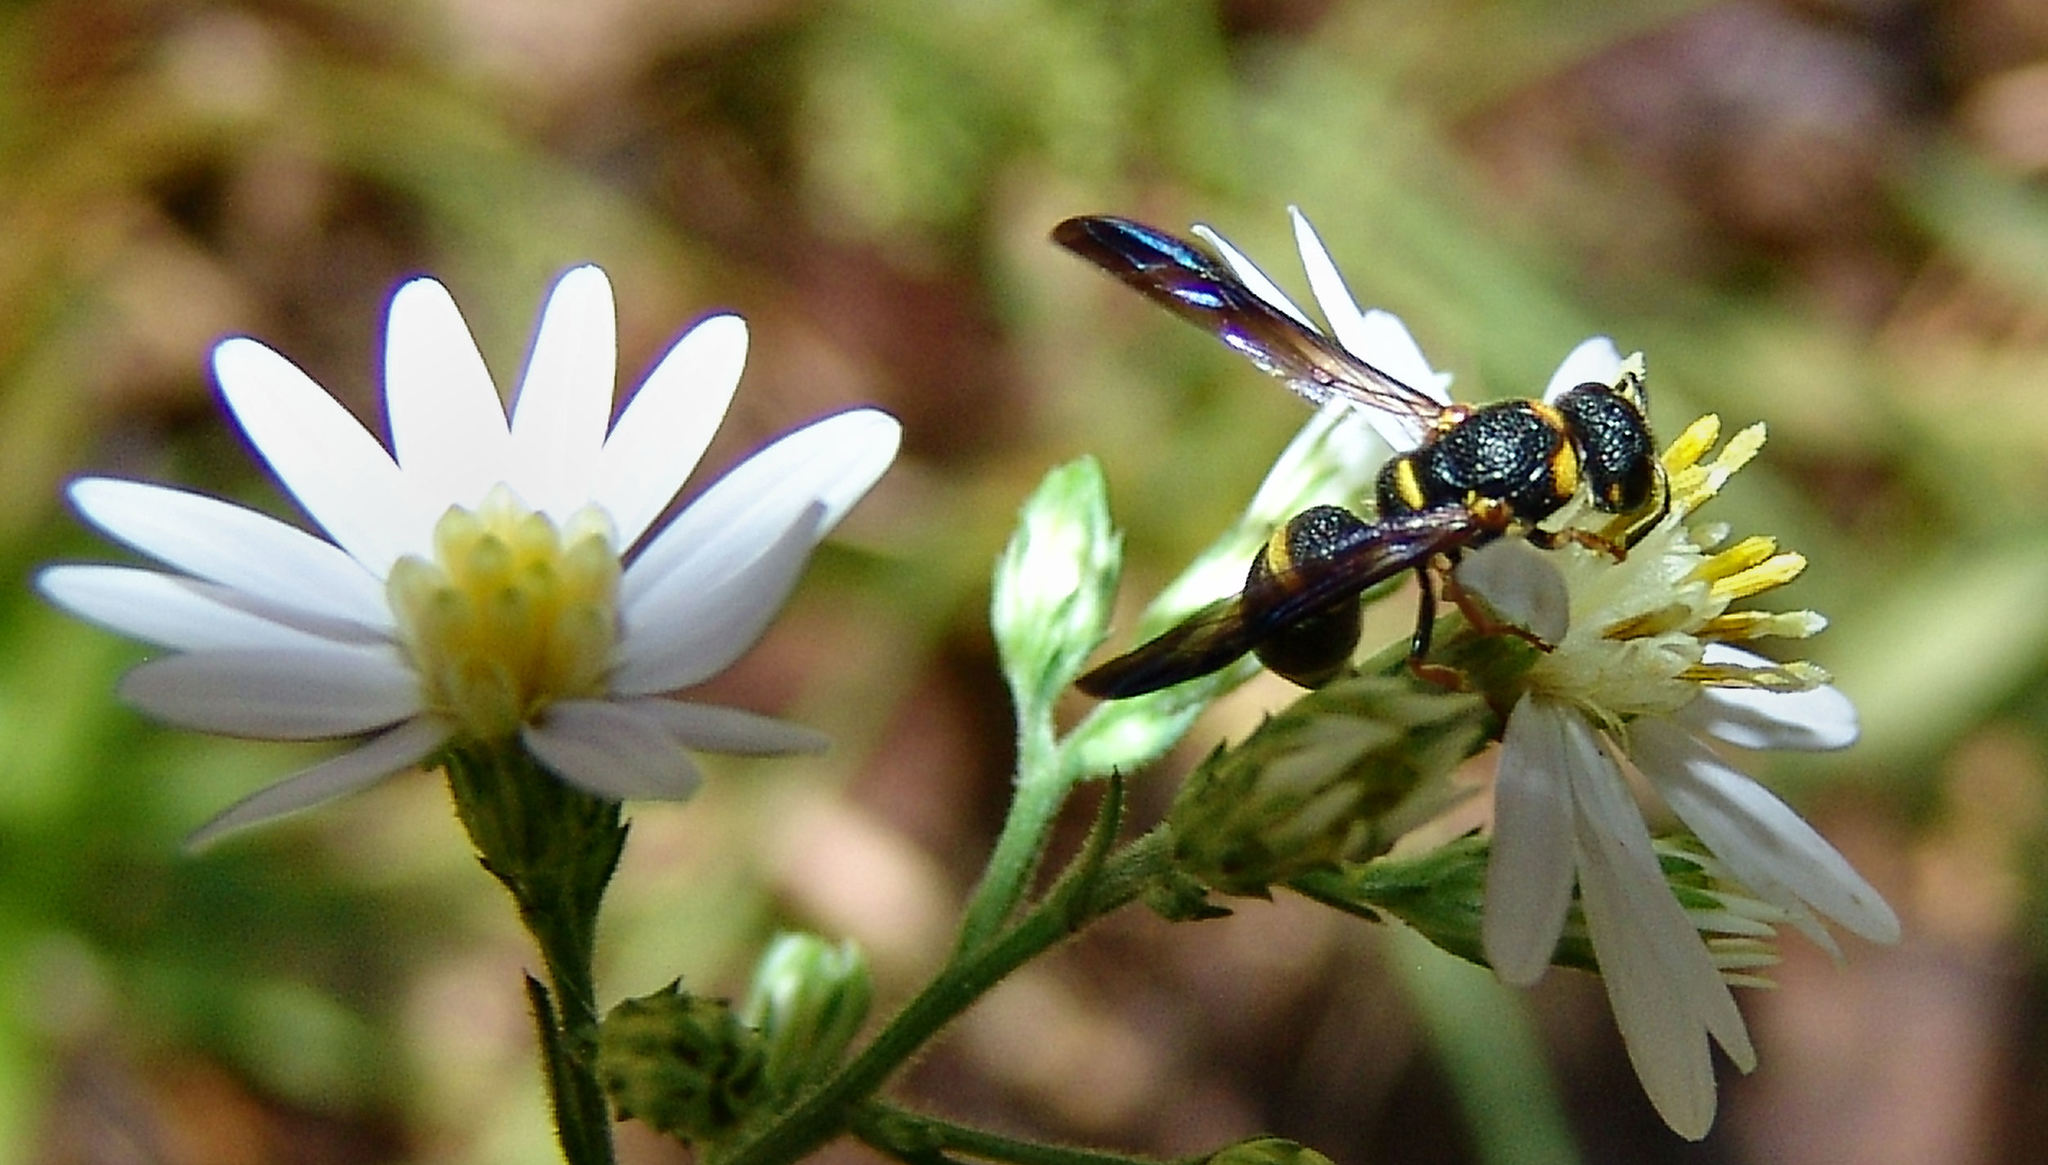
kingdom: Animalia
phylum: Arthropoda
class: Insecta
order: Hymenoptera
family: Eumenidae
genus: Parancistrocerus
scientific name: Parancistrocerus perennis
